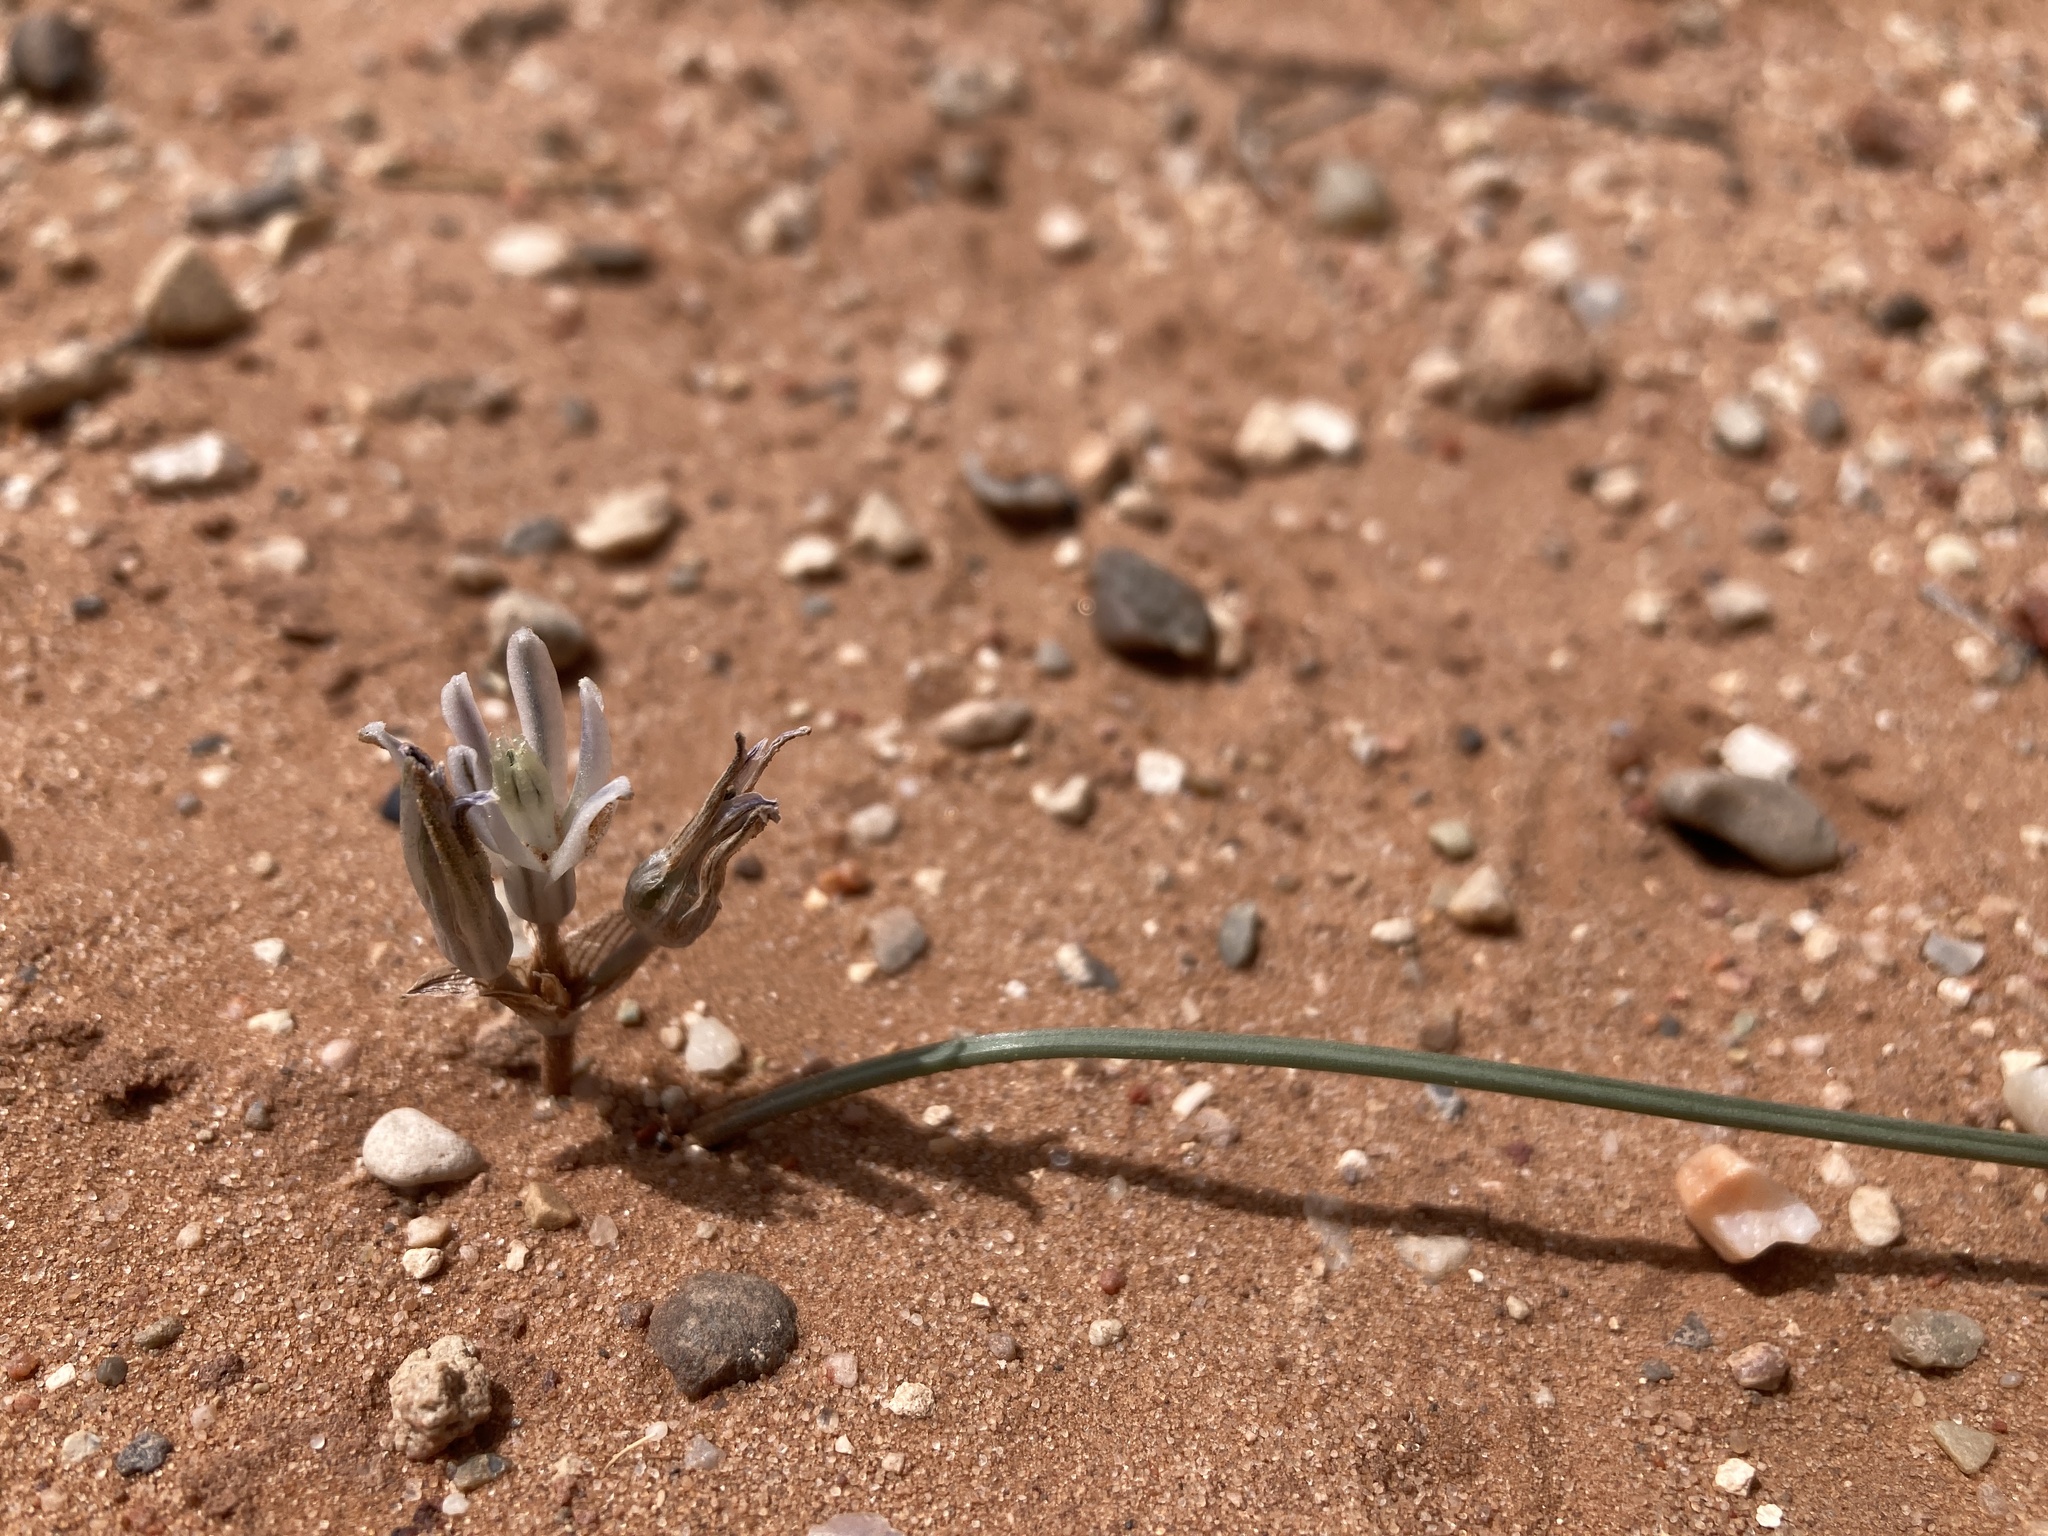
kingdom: Plantae
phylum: Tracheophyta
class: Liliopsida
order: Asparagales
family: Asparagaceae
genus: Androstephium
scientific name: Androstephium breviflorum
